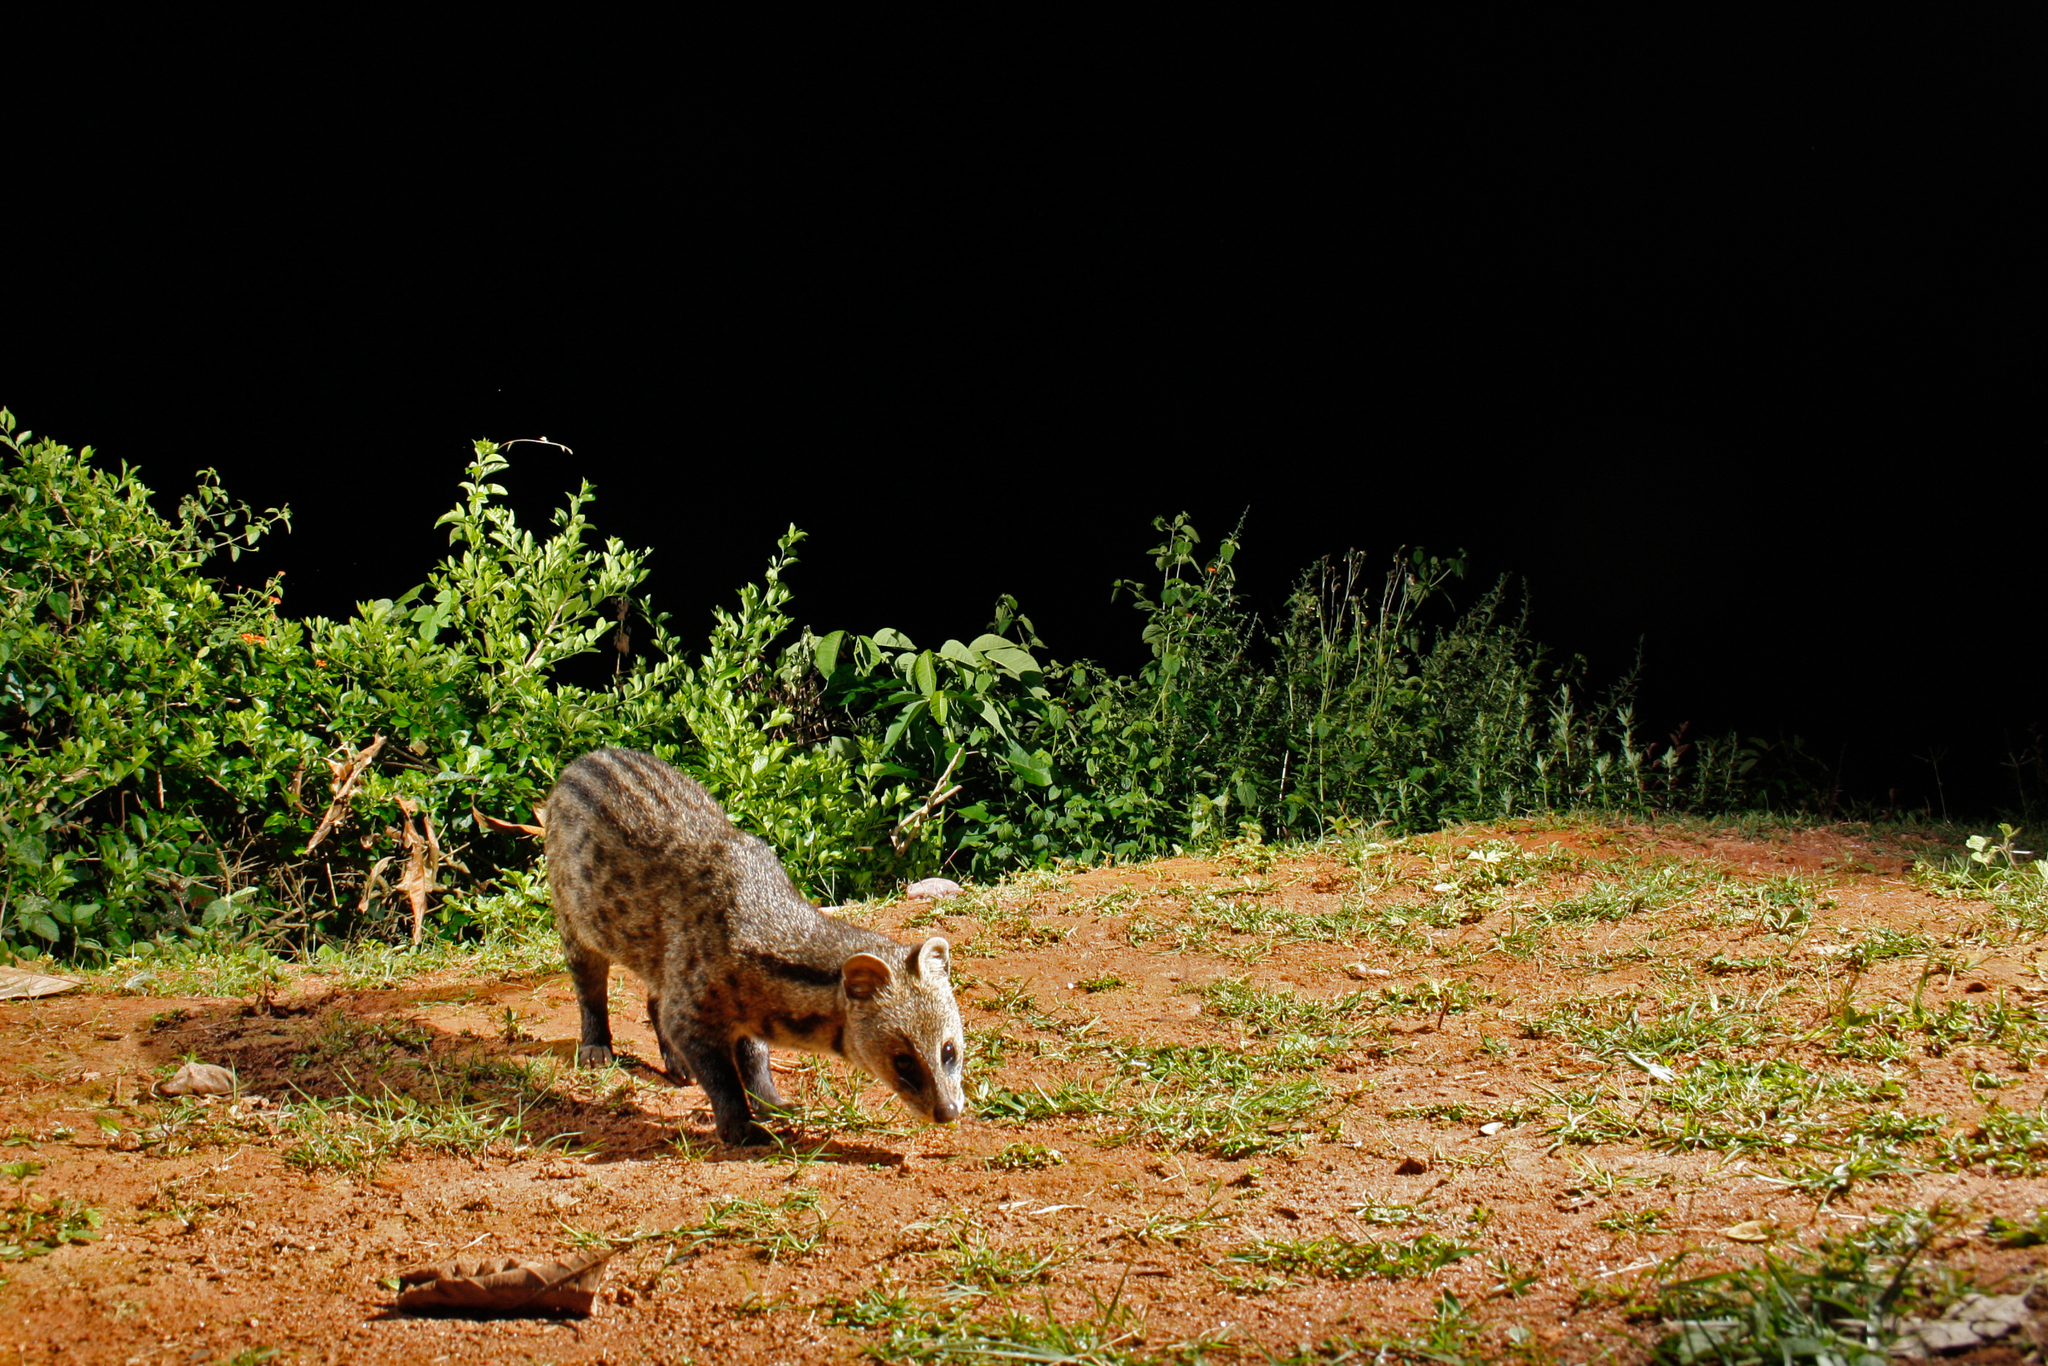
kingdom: Animalia
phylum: Chordata
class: Mammalia
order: Carnivora
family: Viverridae
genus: Viverricula
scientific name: Viverricula indica
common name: Small indian civet
